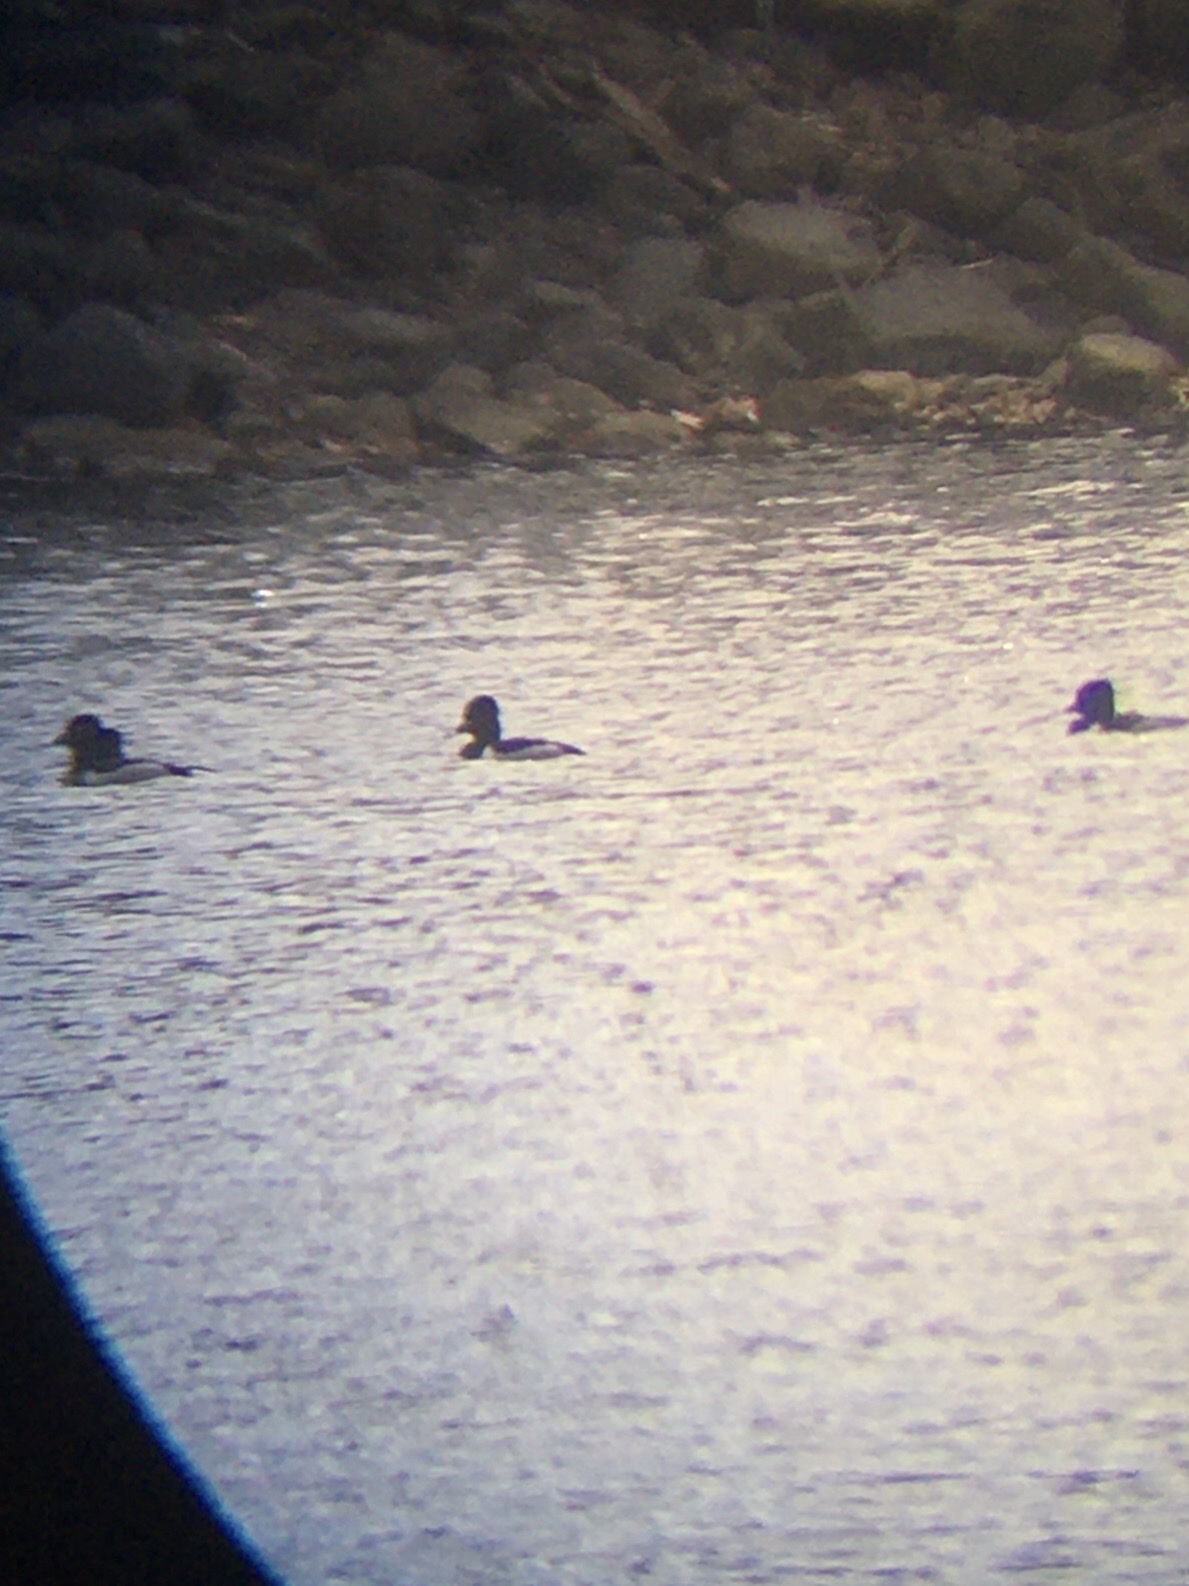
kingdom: Animalia
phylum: Chordata
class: Aves
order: Anseriformes
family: Anatidae
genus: Aythya
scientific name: Aythya collaris
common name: Ring-necked duck
